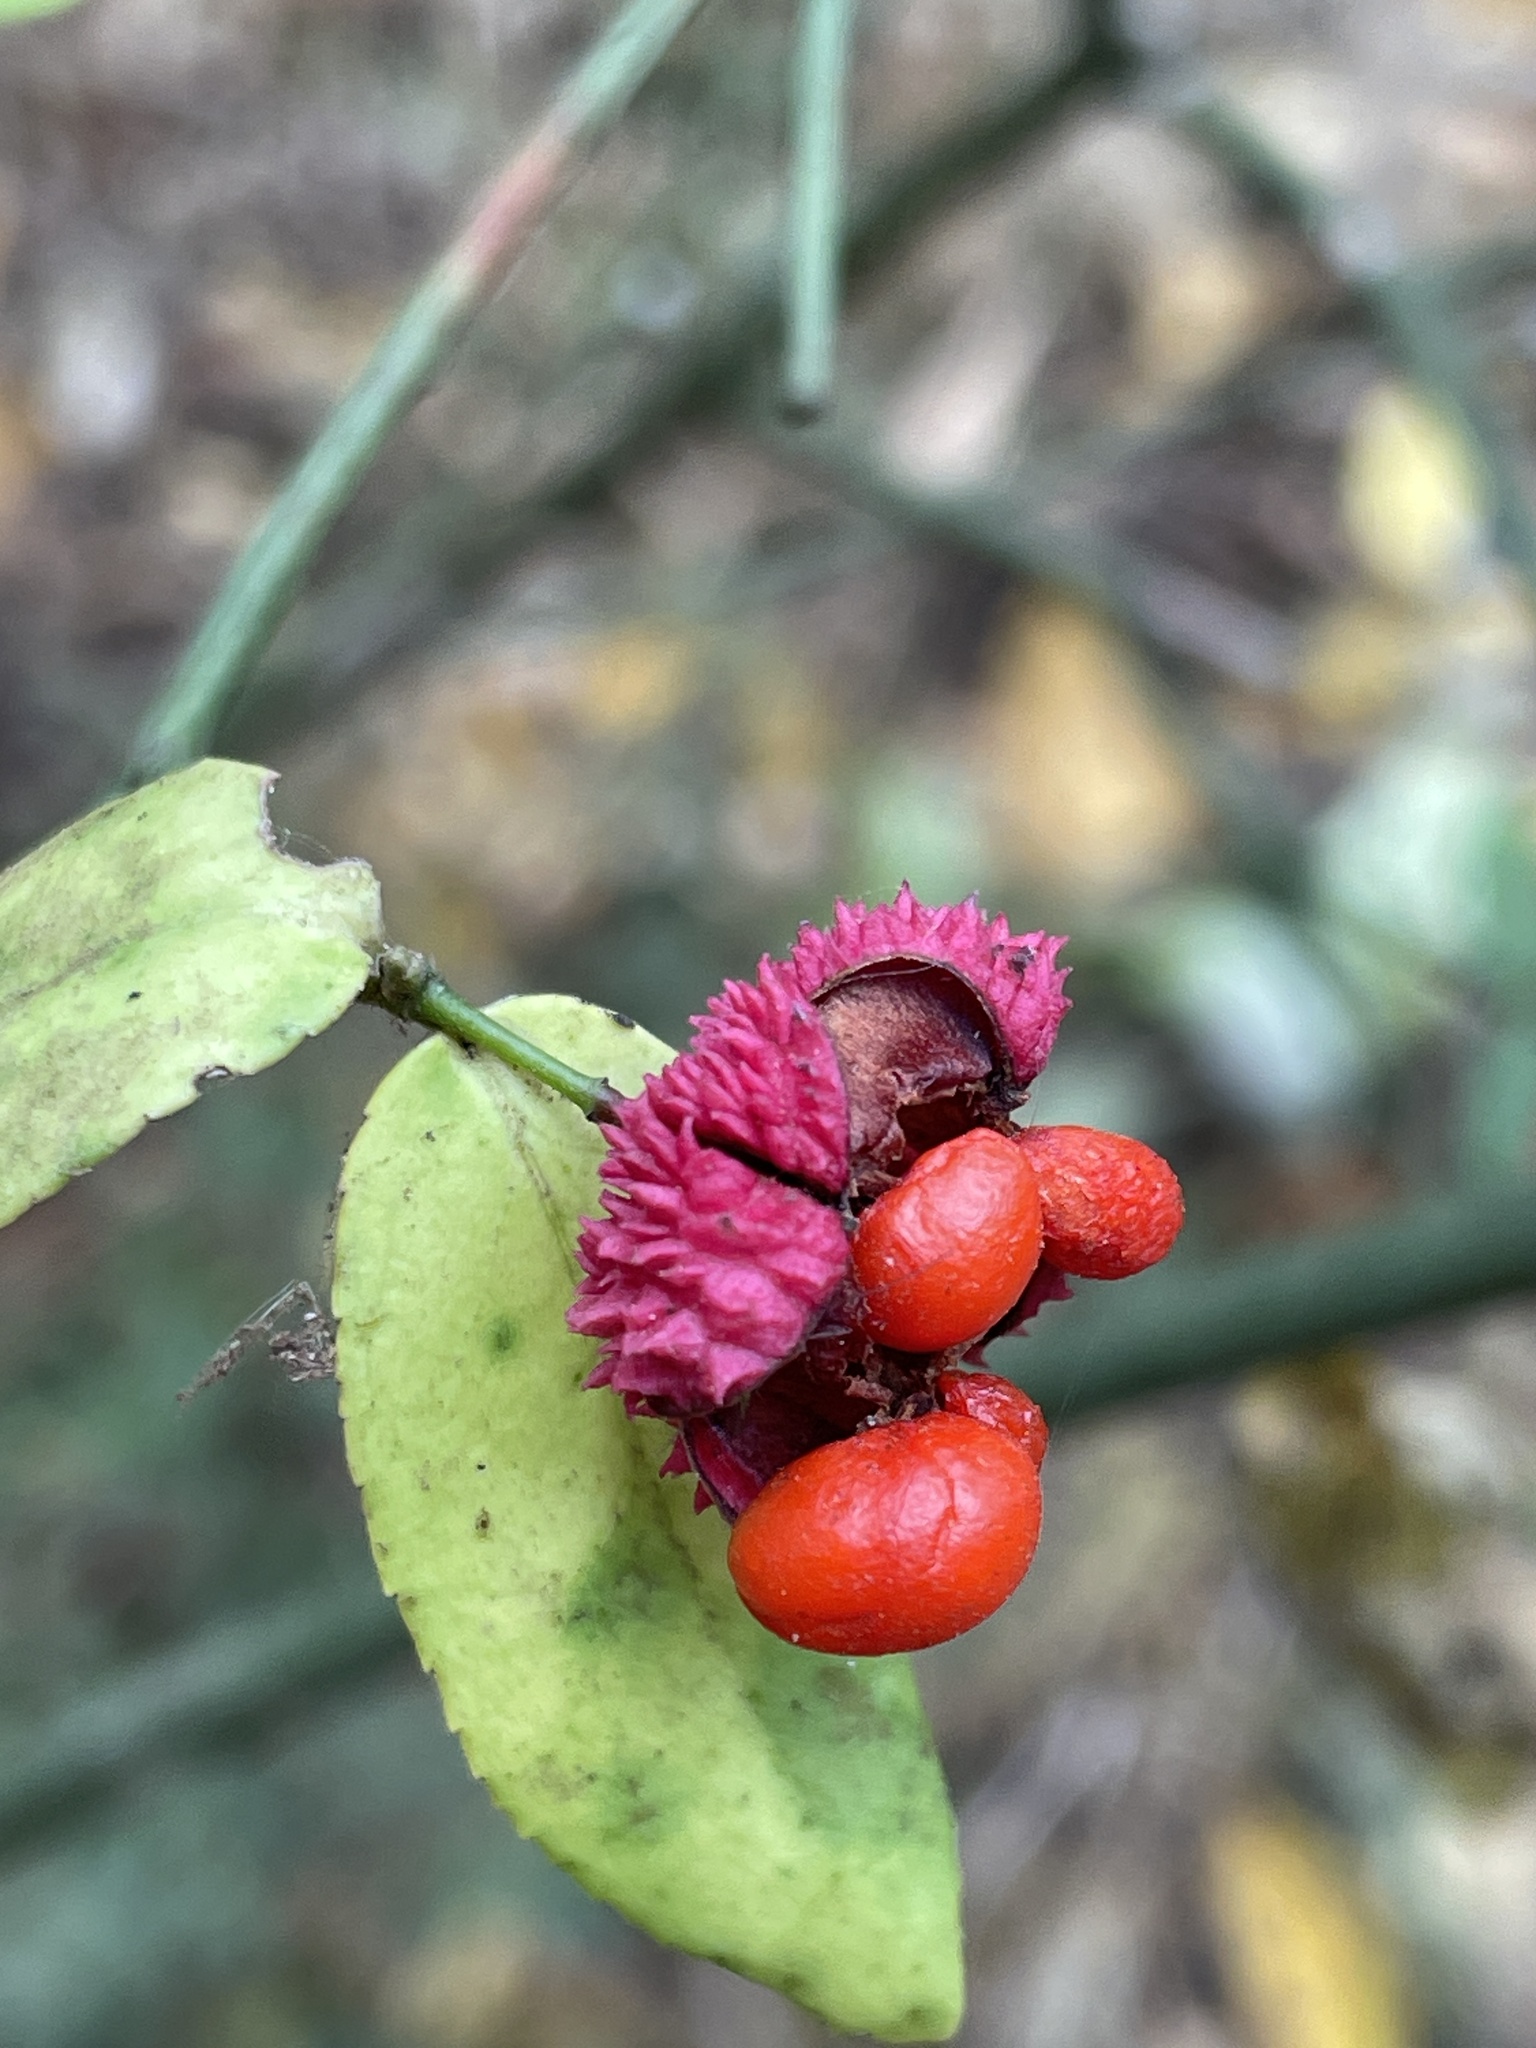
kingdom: Plantae
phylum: Tracheophyta
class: Magnoliopsida
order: Celastrales
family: Celastraceae
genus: Euonymus
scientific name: Euonymus americanus
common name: Bursting-heart
